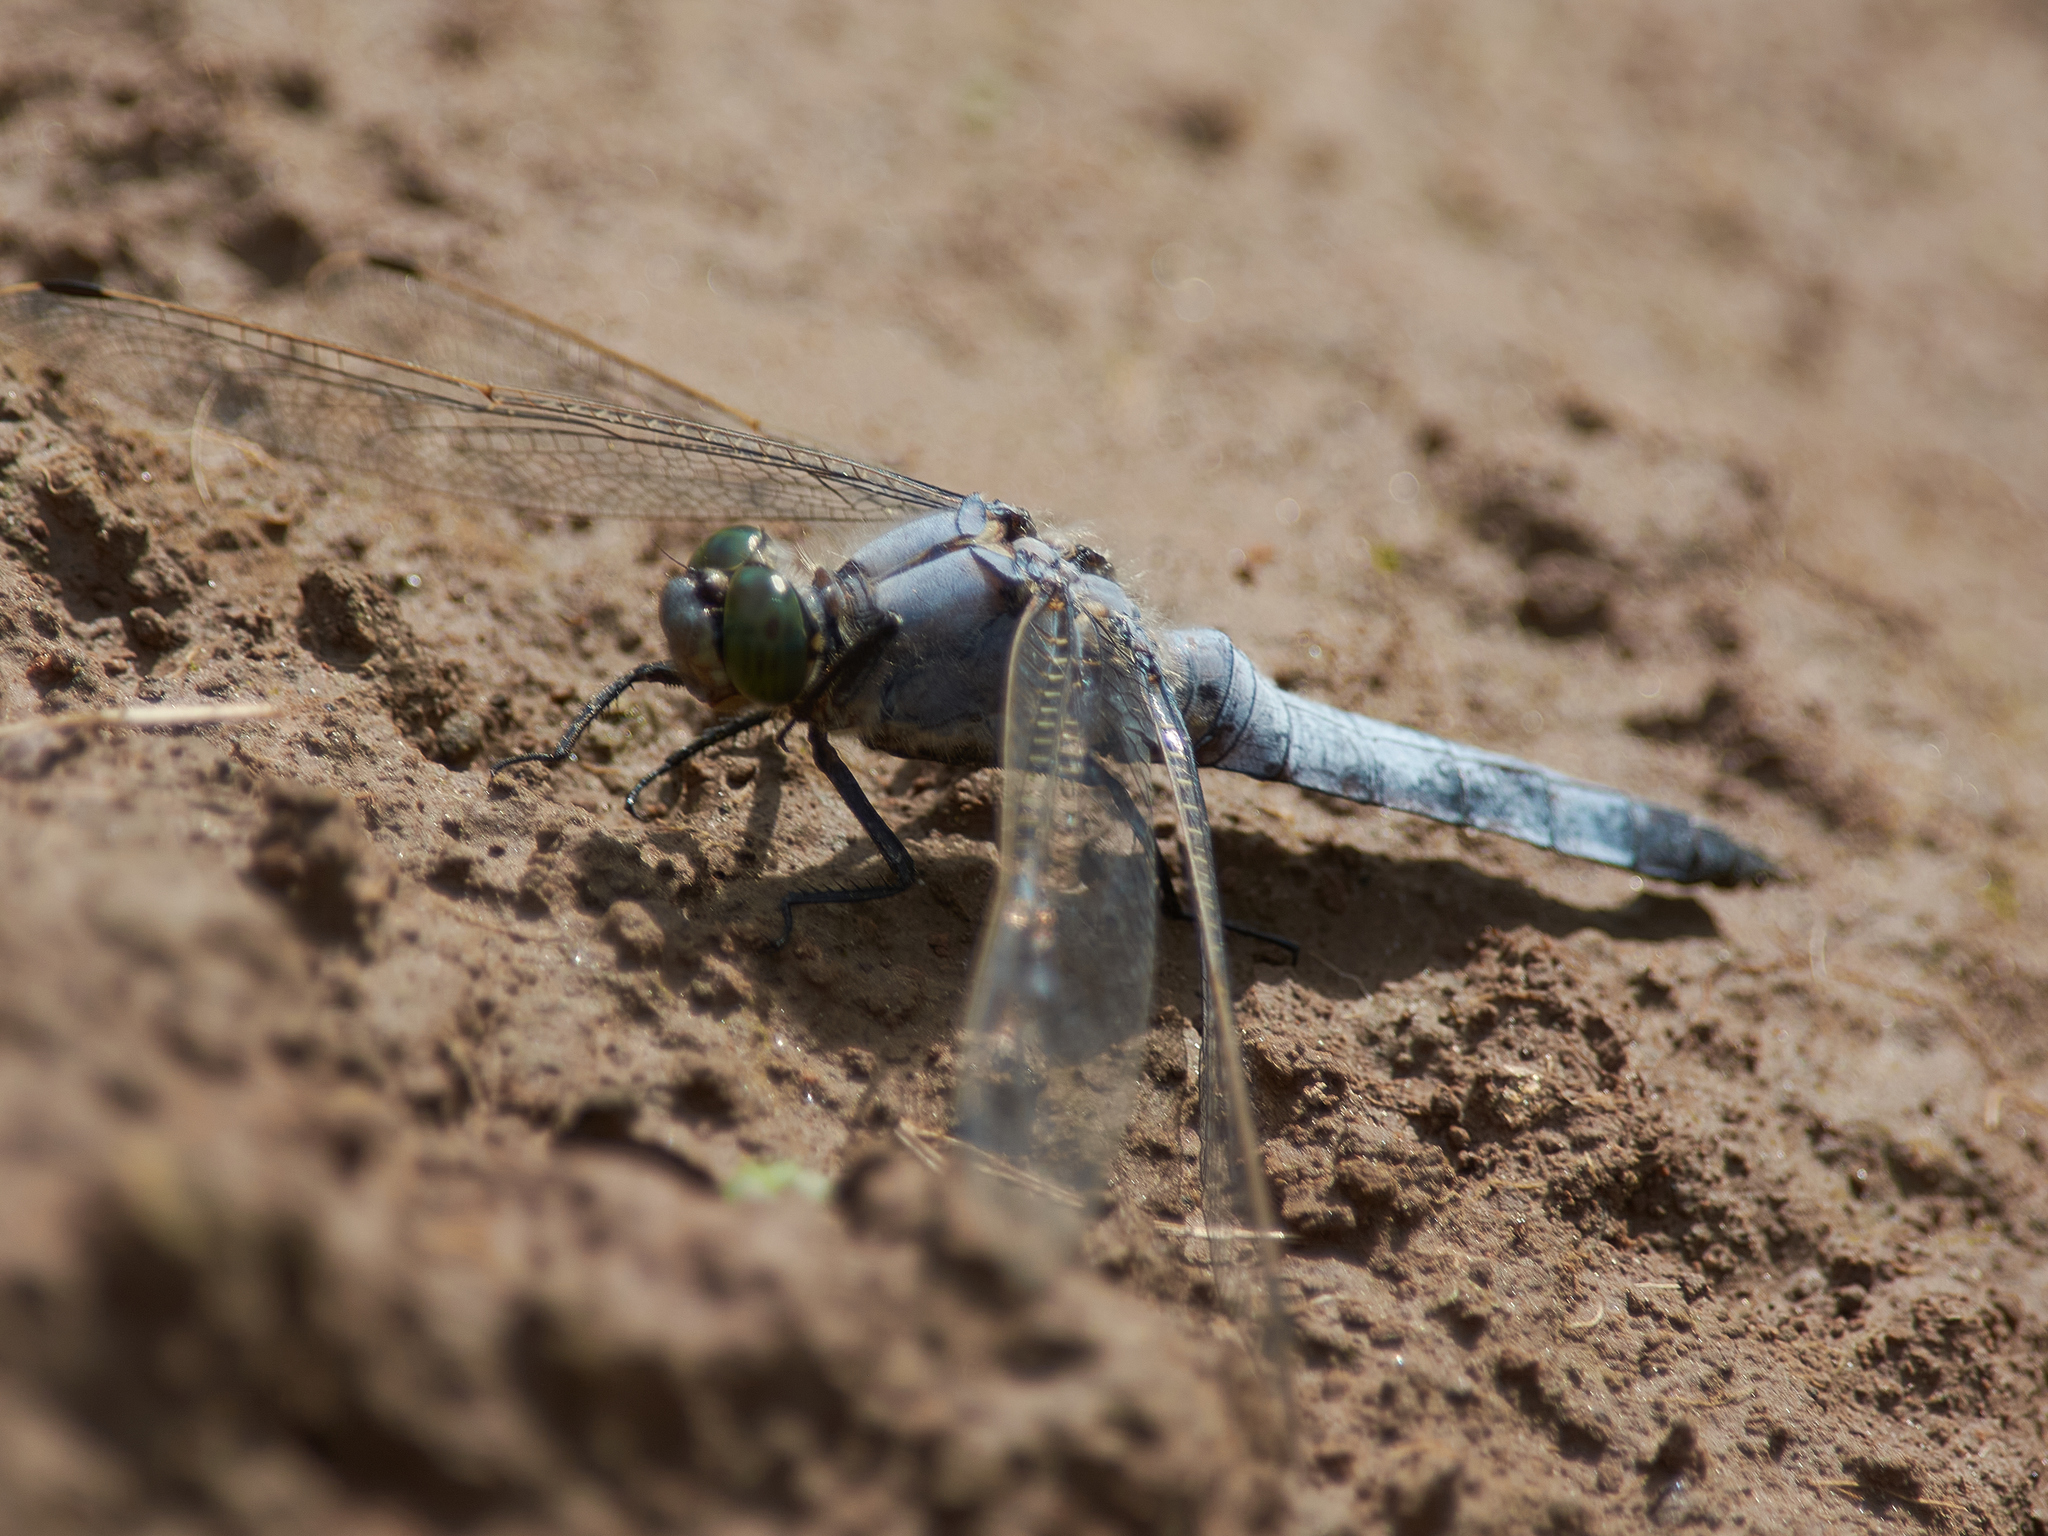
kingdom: Animalia
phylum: Arthropoda
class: Insecta
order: Odonata
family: Libellulidae
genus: Orthetrum
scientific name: Orthetrum cancellatum
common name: Black-tailed skimmer
